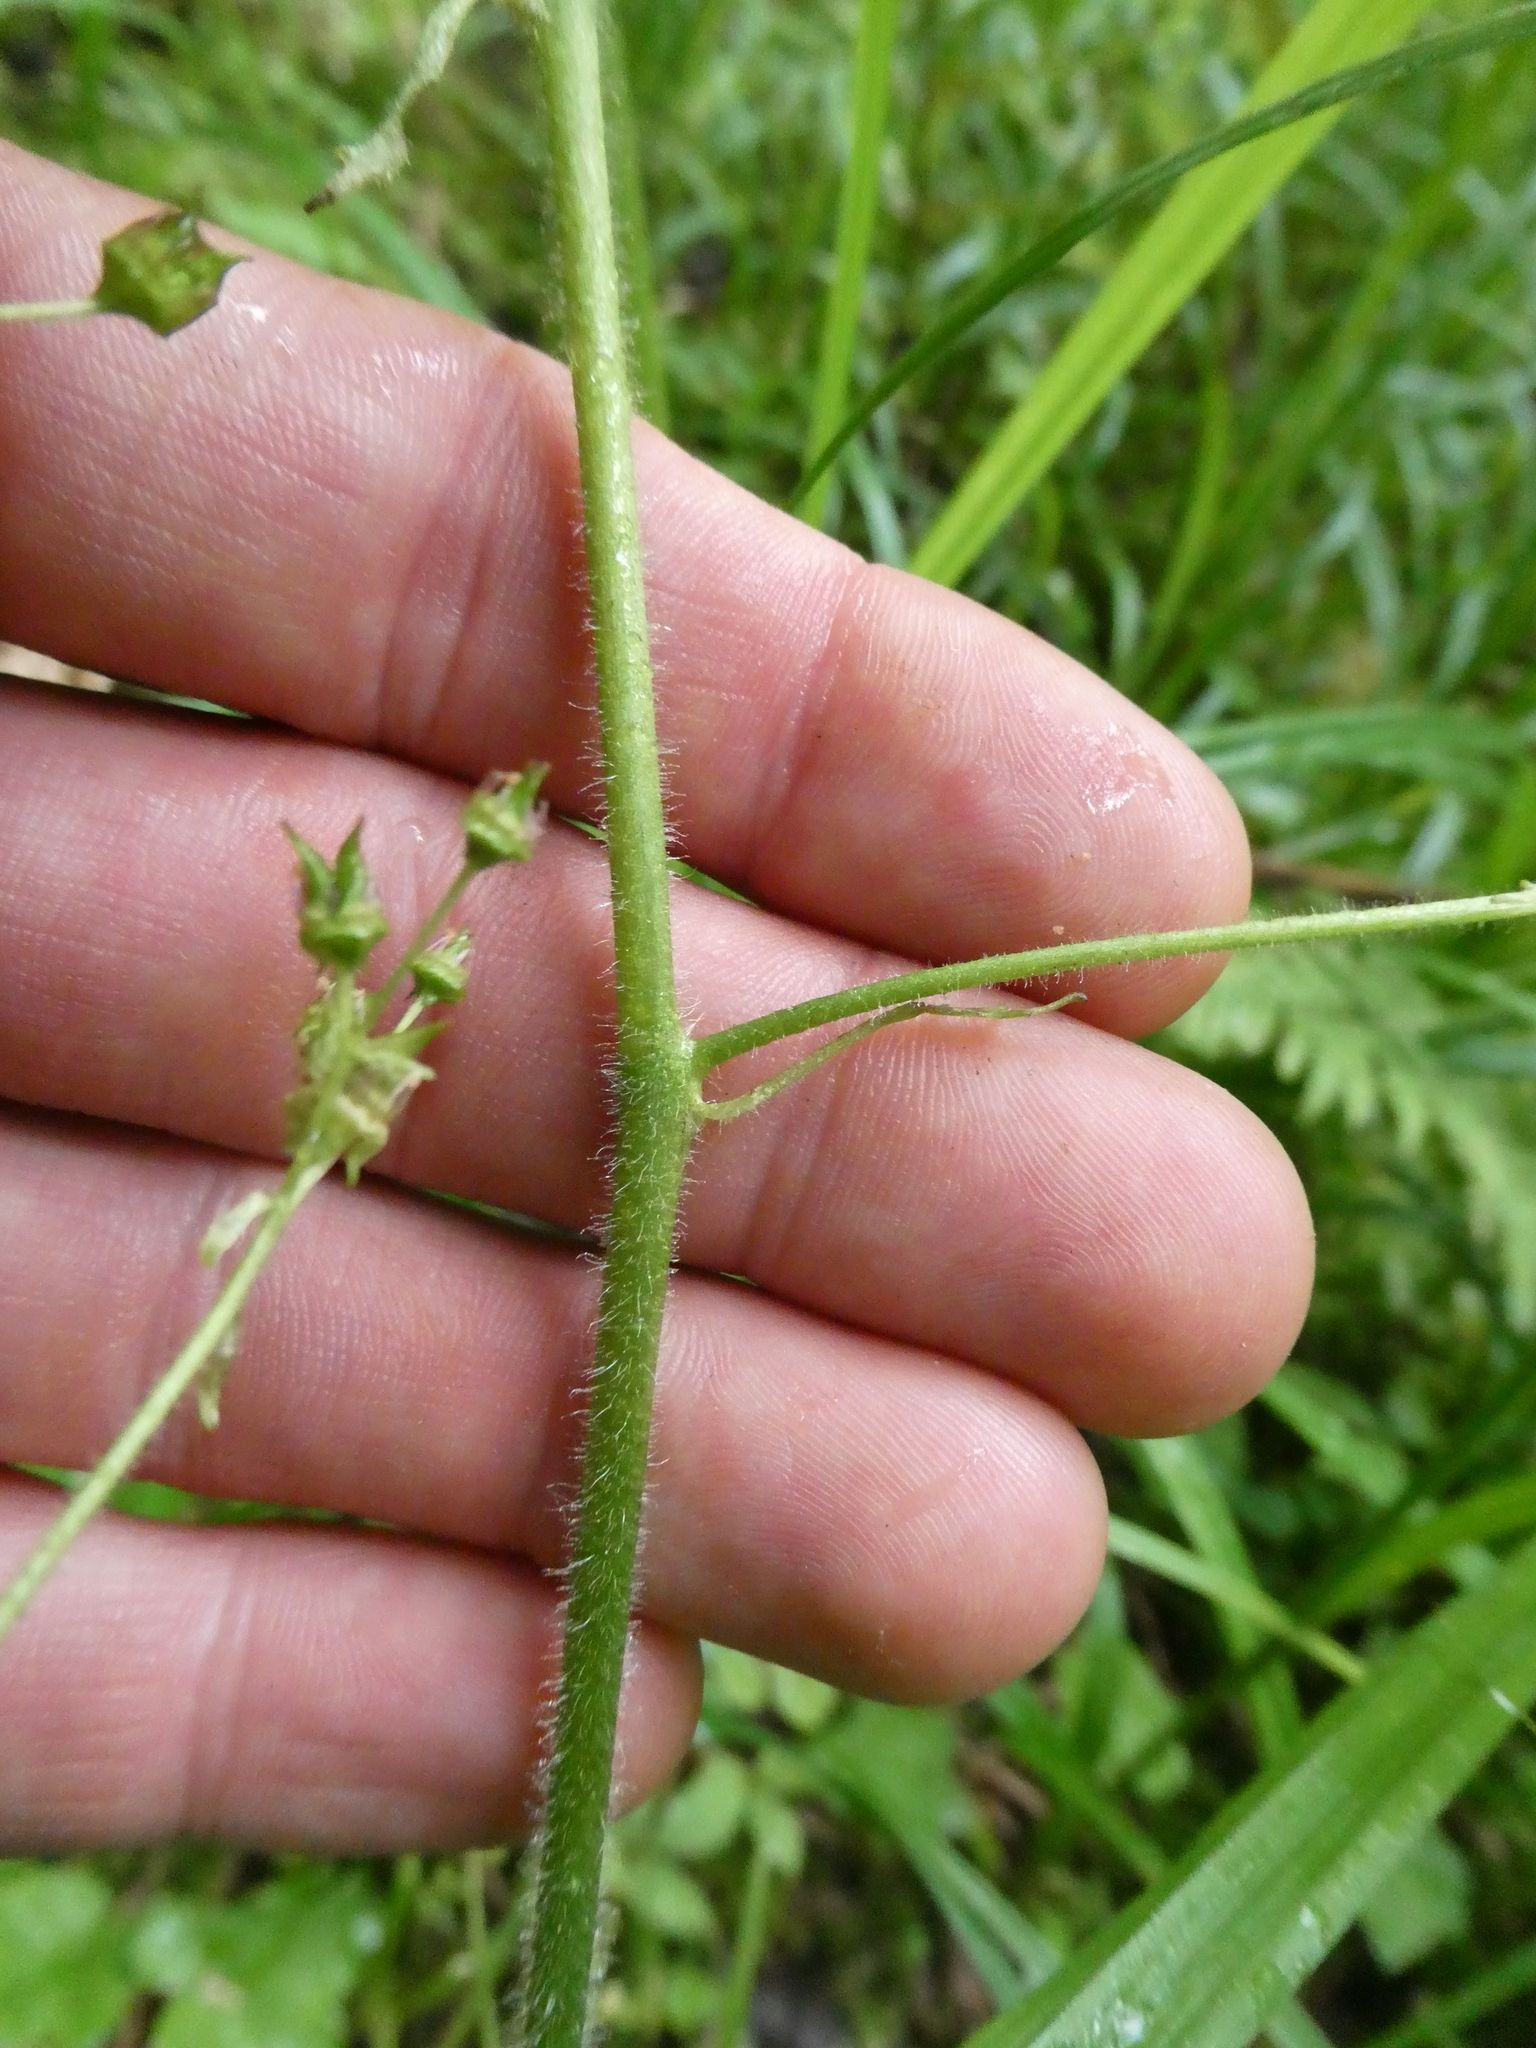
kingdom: Plantae
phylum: Tracheophyta
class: Magnoliopsida
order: Saxifragales
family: Saxifragaceae
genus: Micranthes
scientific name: Micranthes pensylvanica
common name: Marsh saxifrage
